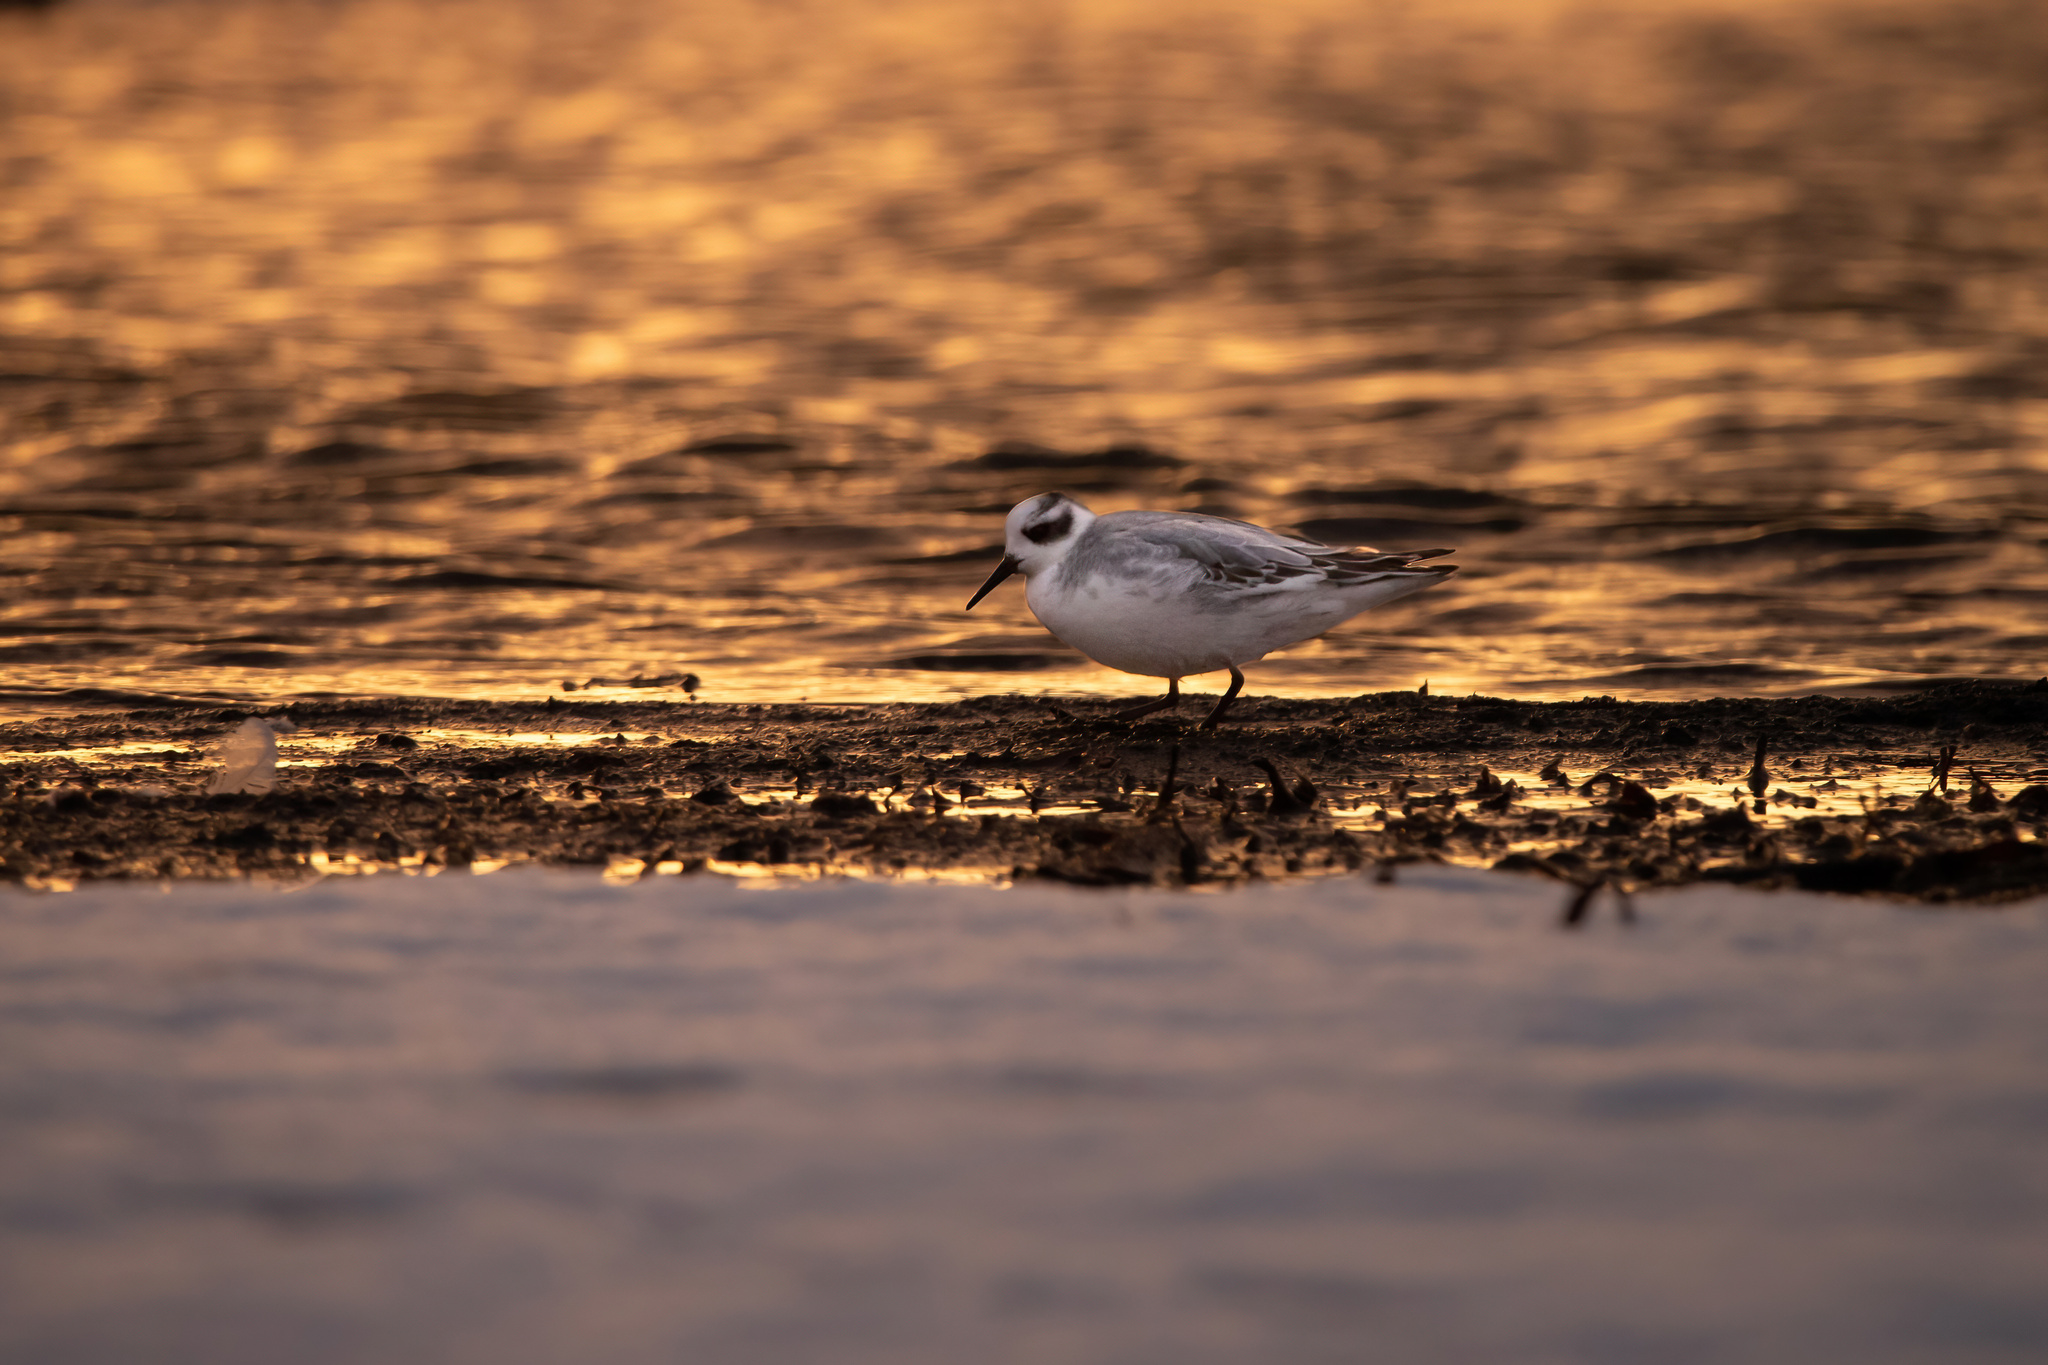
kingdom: Animalia
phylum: Chordata
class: Aves
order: Charadriiformes
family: Scolopacidae
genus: Phalaropus
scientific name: Phalaropus fulicarius
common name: Red phalarope
